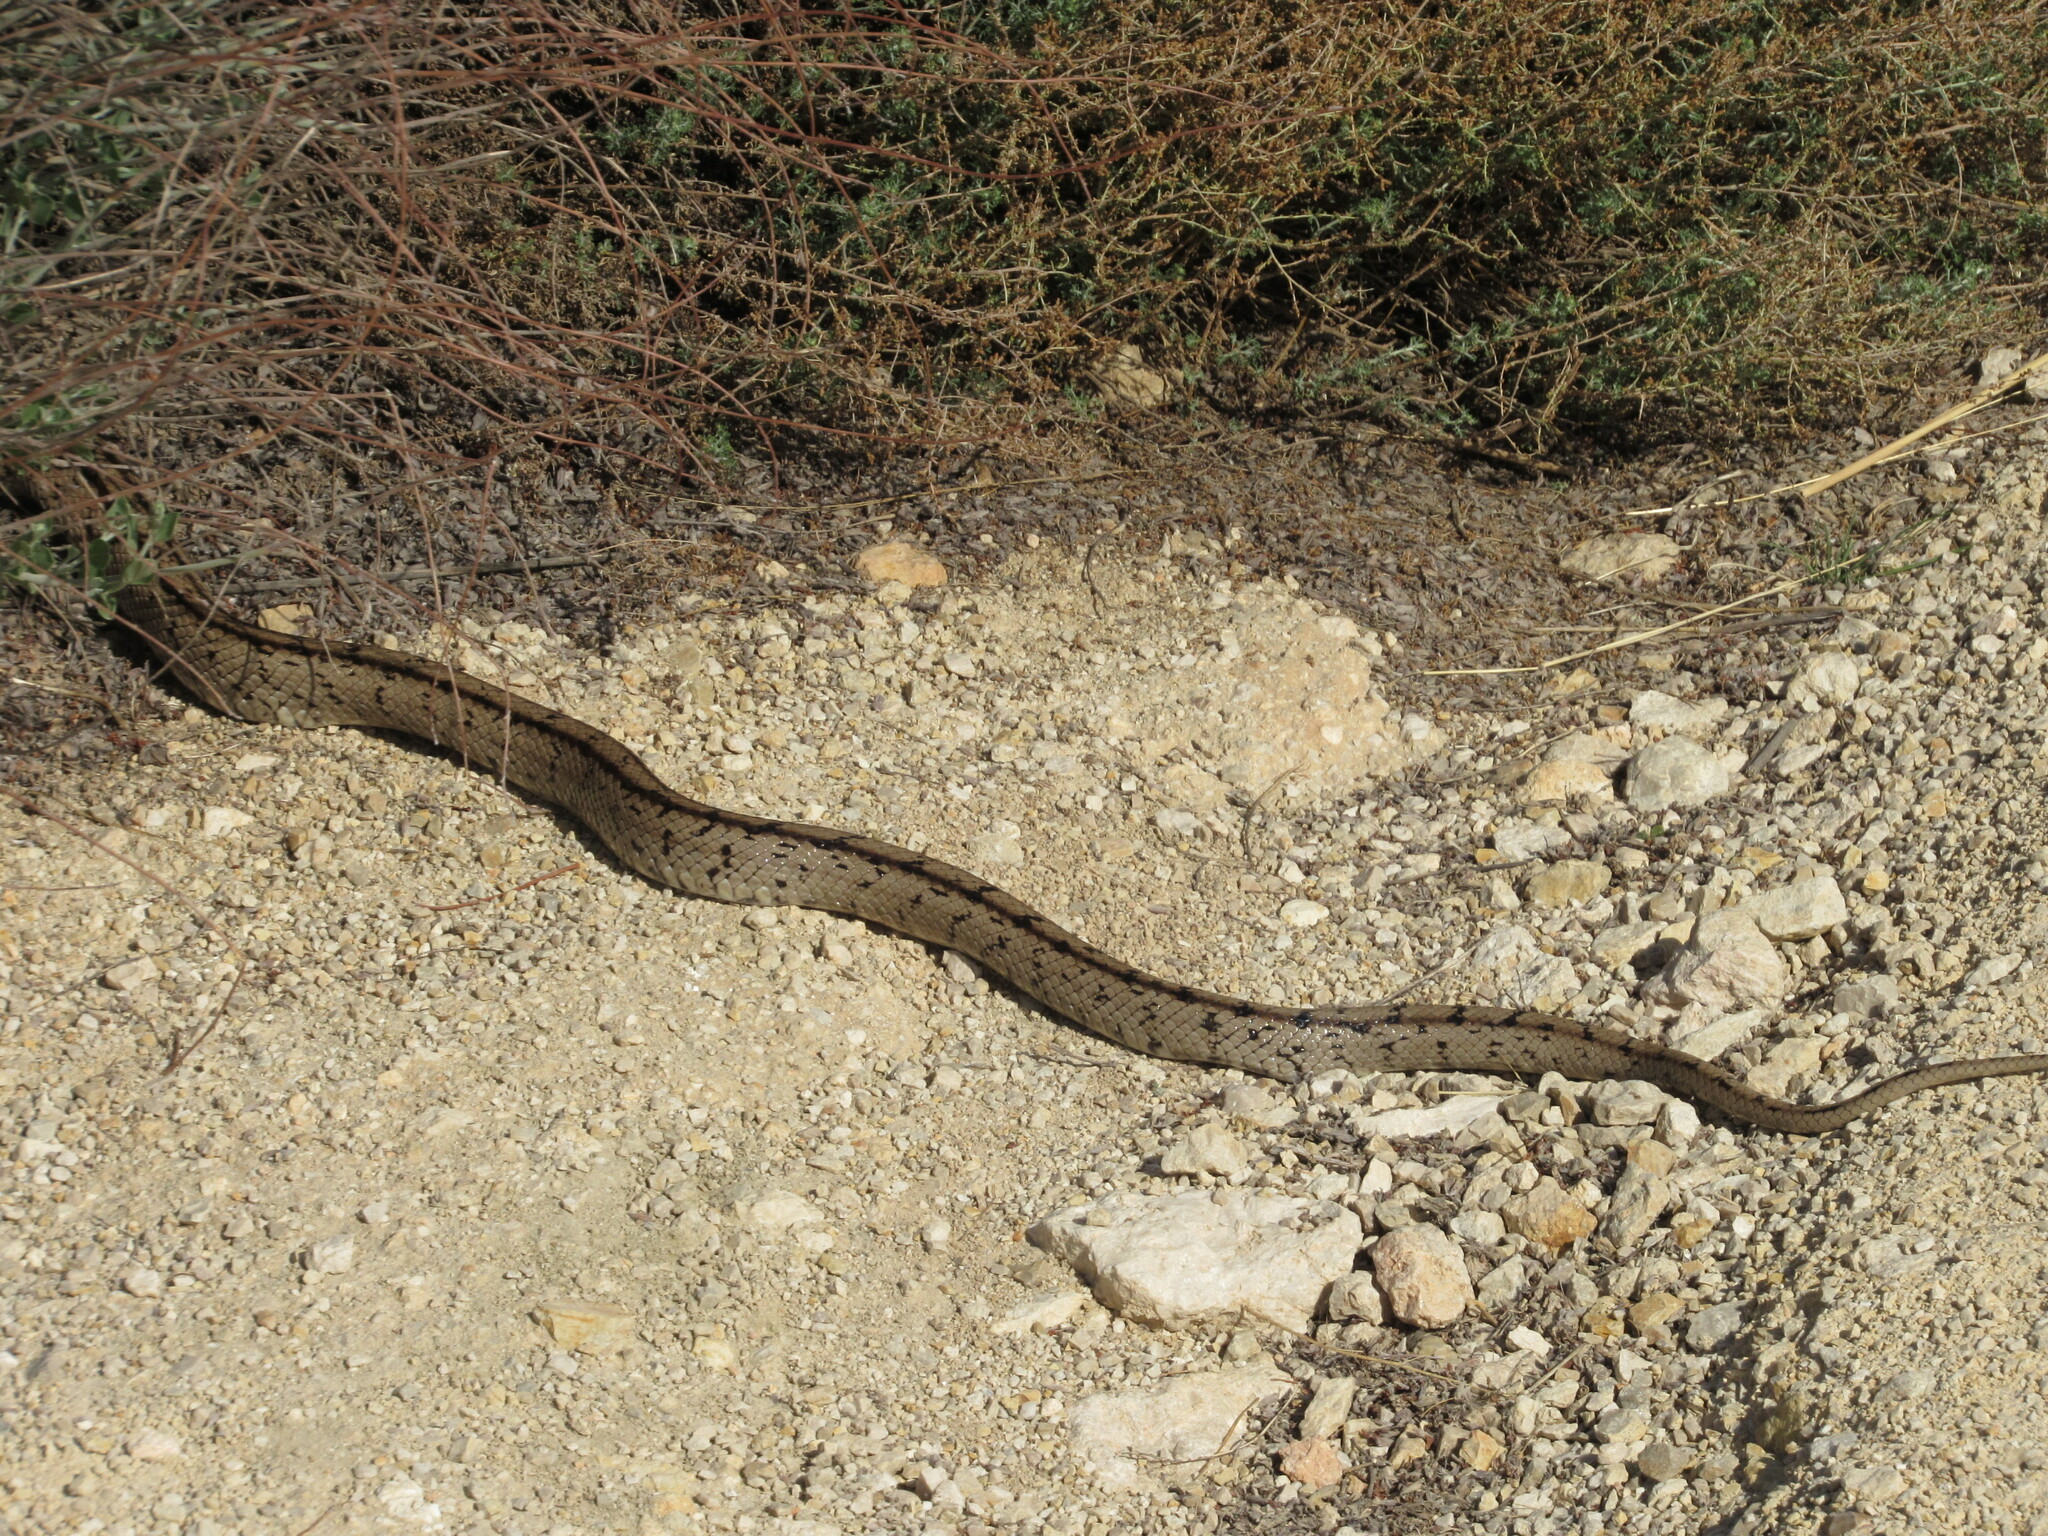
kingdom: Animalia
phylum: Chordata
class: Squamata
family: Colubridae
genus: Zamenis
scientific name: Zamenis scalaris
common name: Ladder snakes
